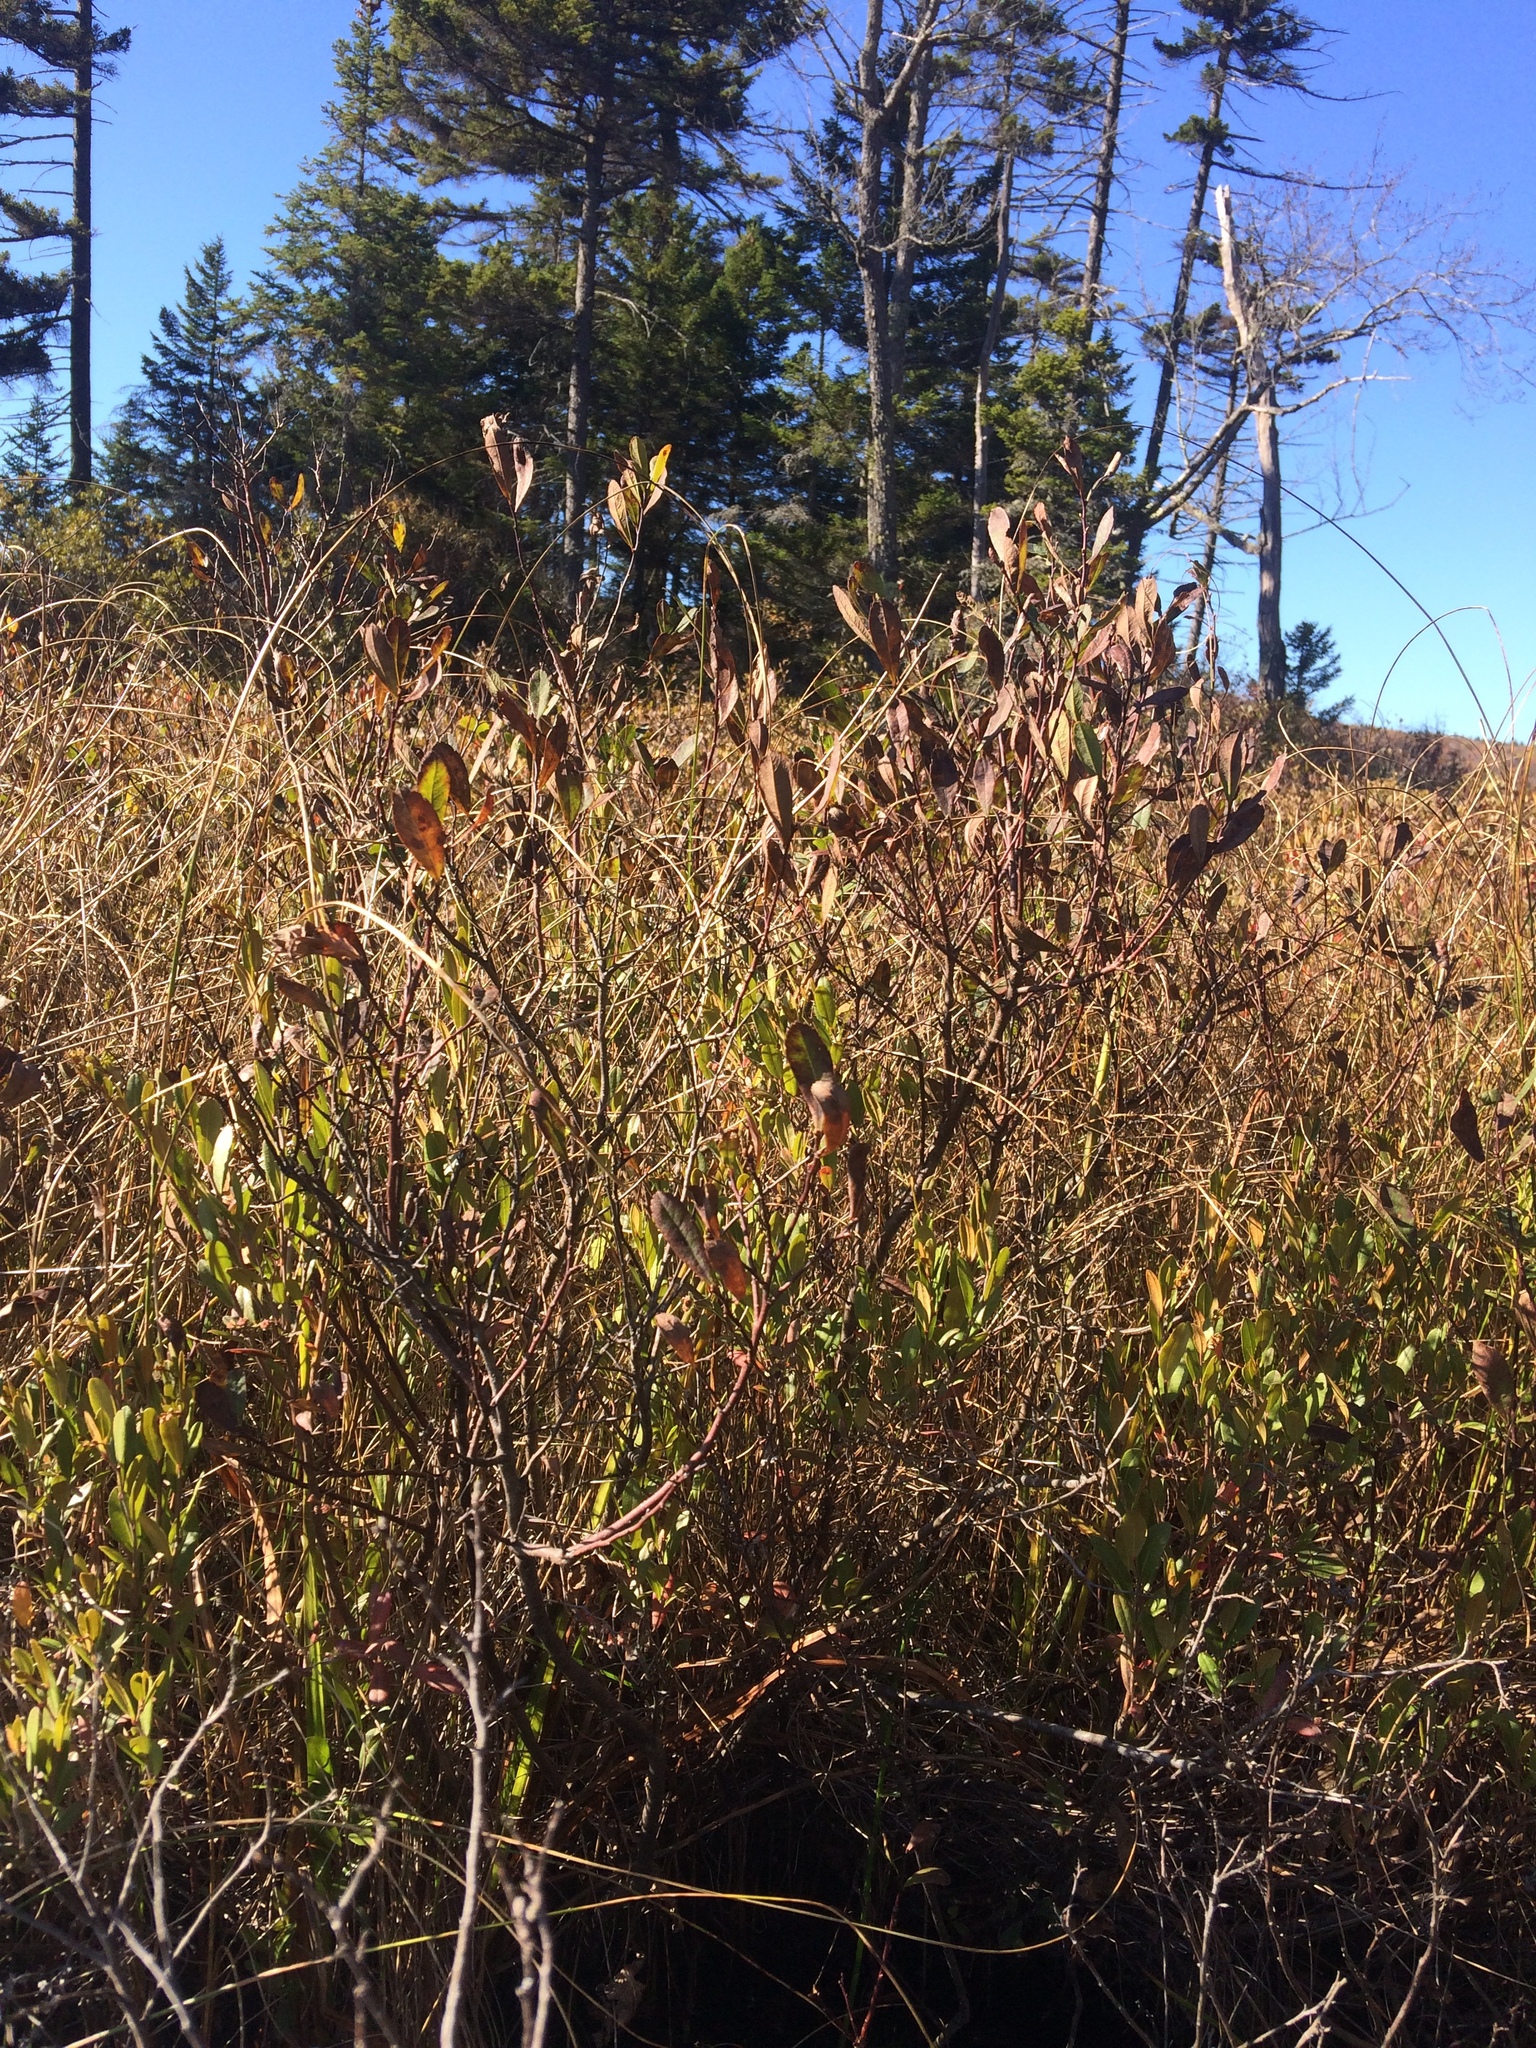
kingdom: Plantae
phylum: Tracheophyta
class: Magnoliopsida
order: Fagales
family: Myricaceae
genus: Myrica
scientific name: Myrica gale
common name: Sweet gale
